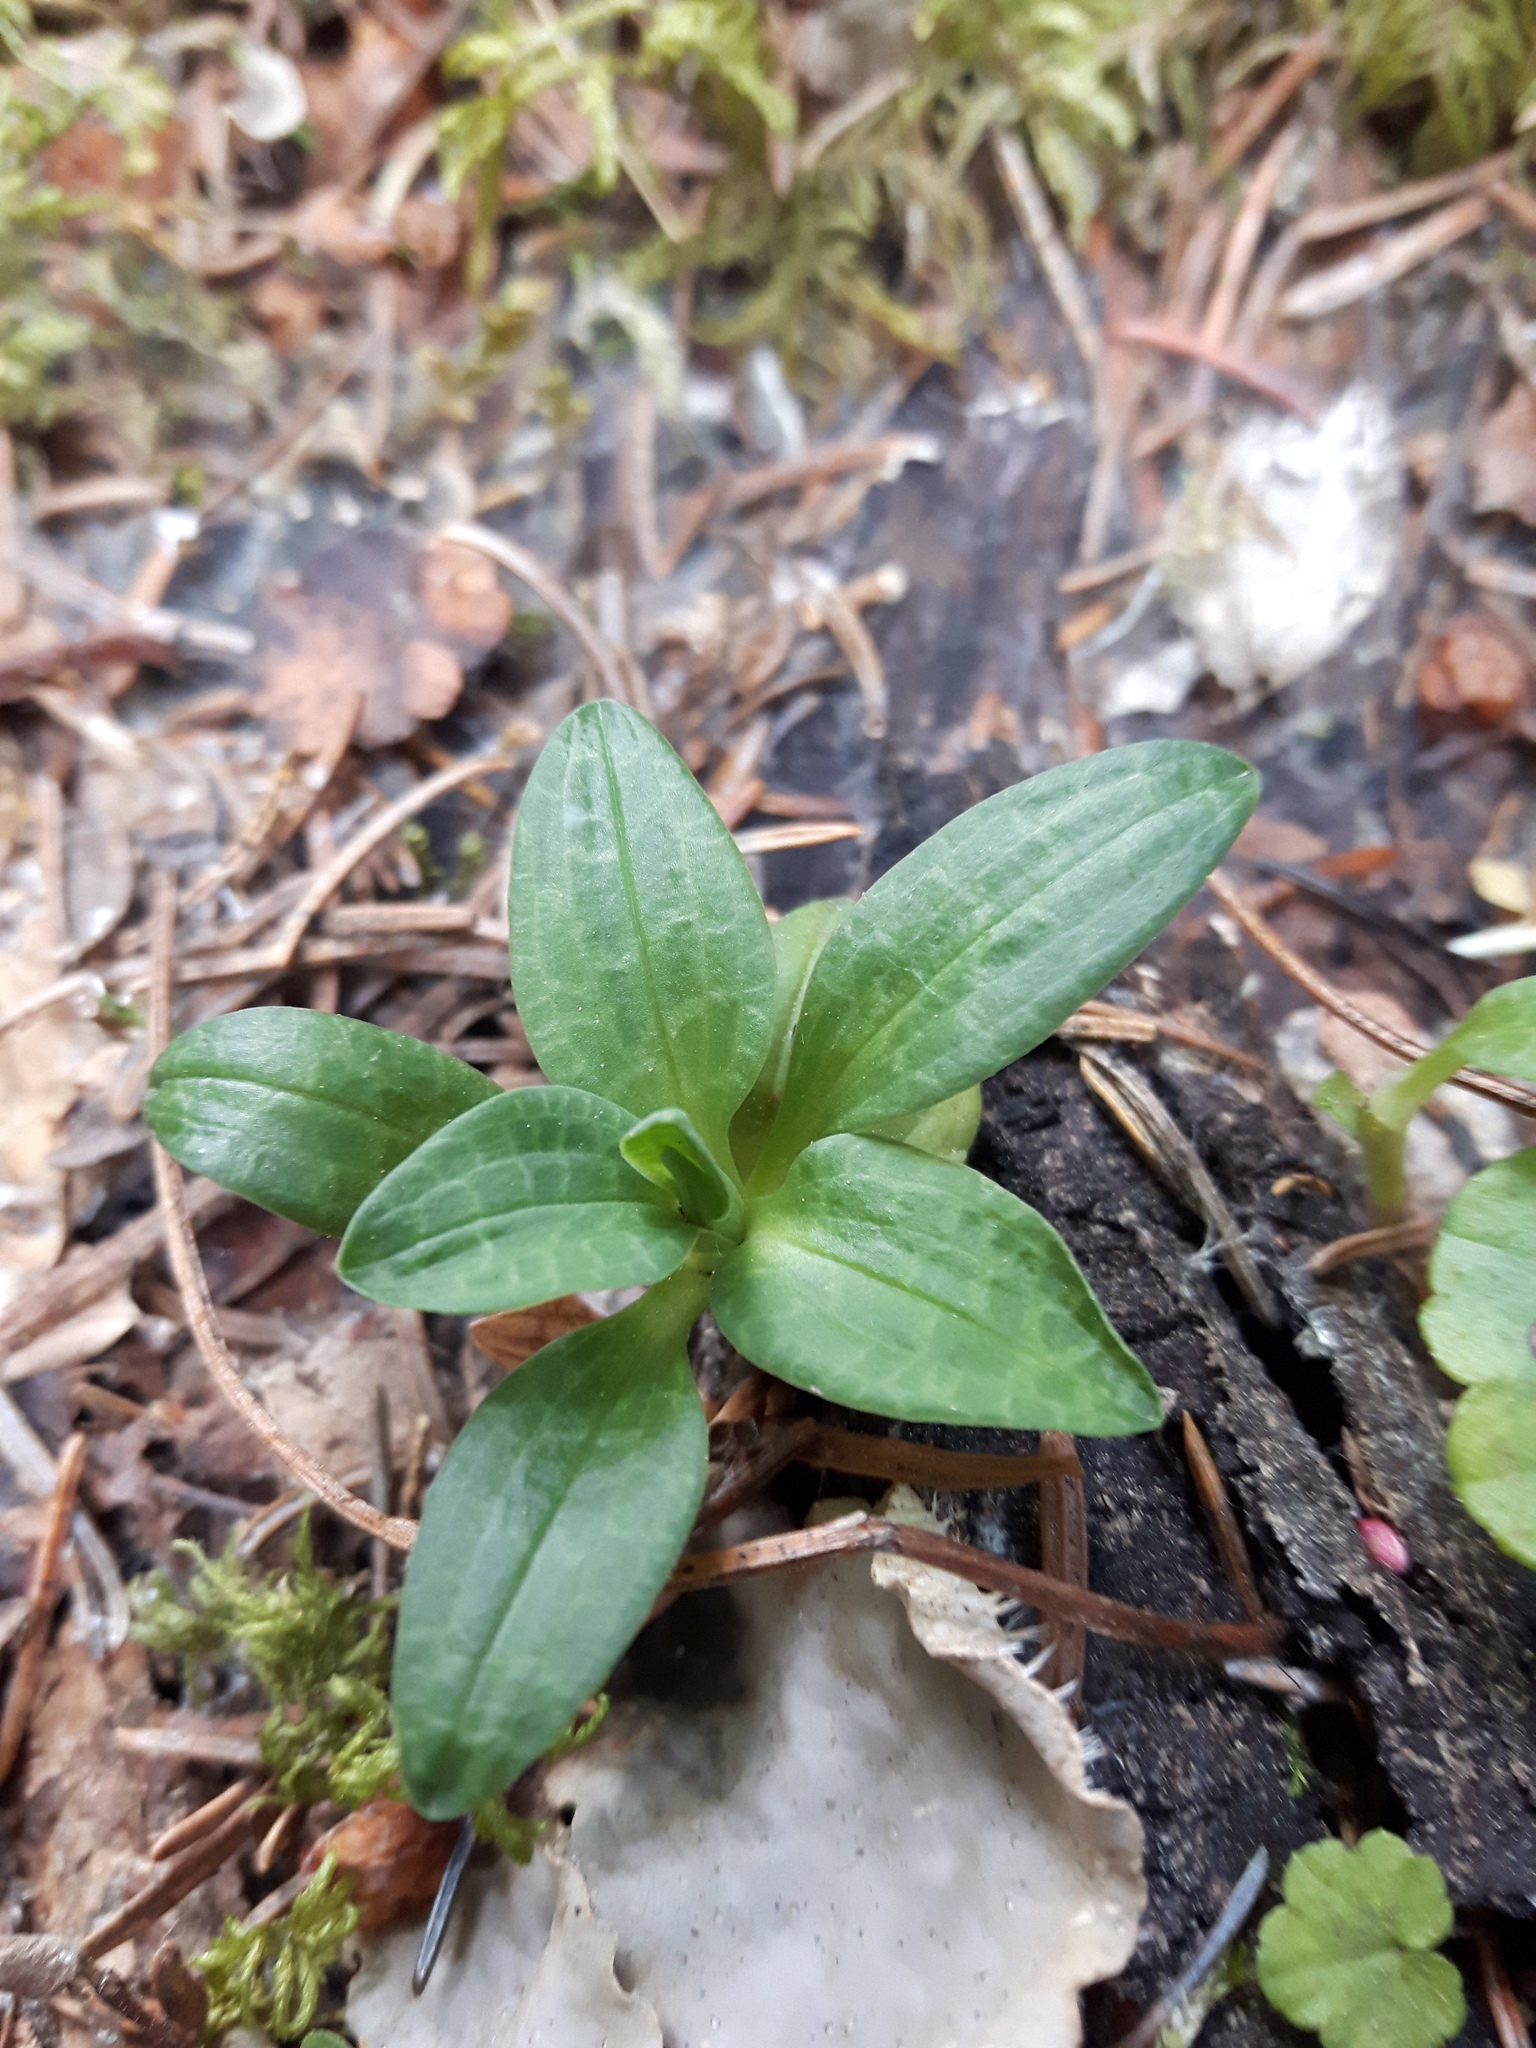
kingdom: Plantae
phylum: Tracheophyta
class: Liliopsida
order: Asparagales
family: Orchidaceae
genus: Goodyera
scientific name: Goodyera repens
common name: Creeping lady's-tresses
